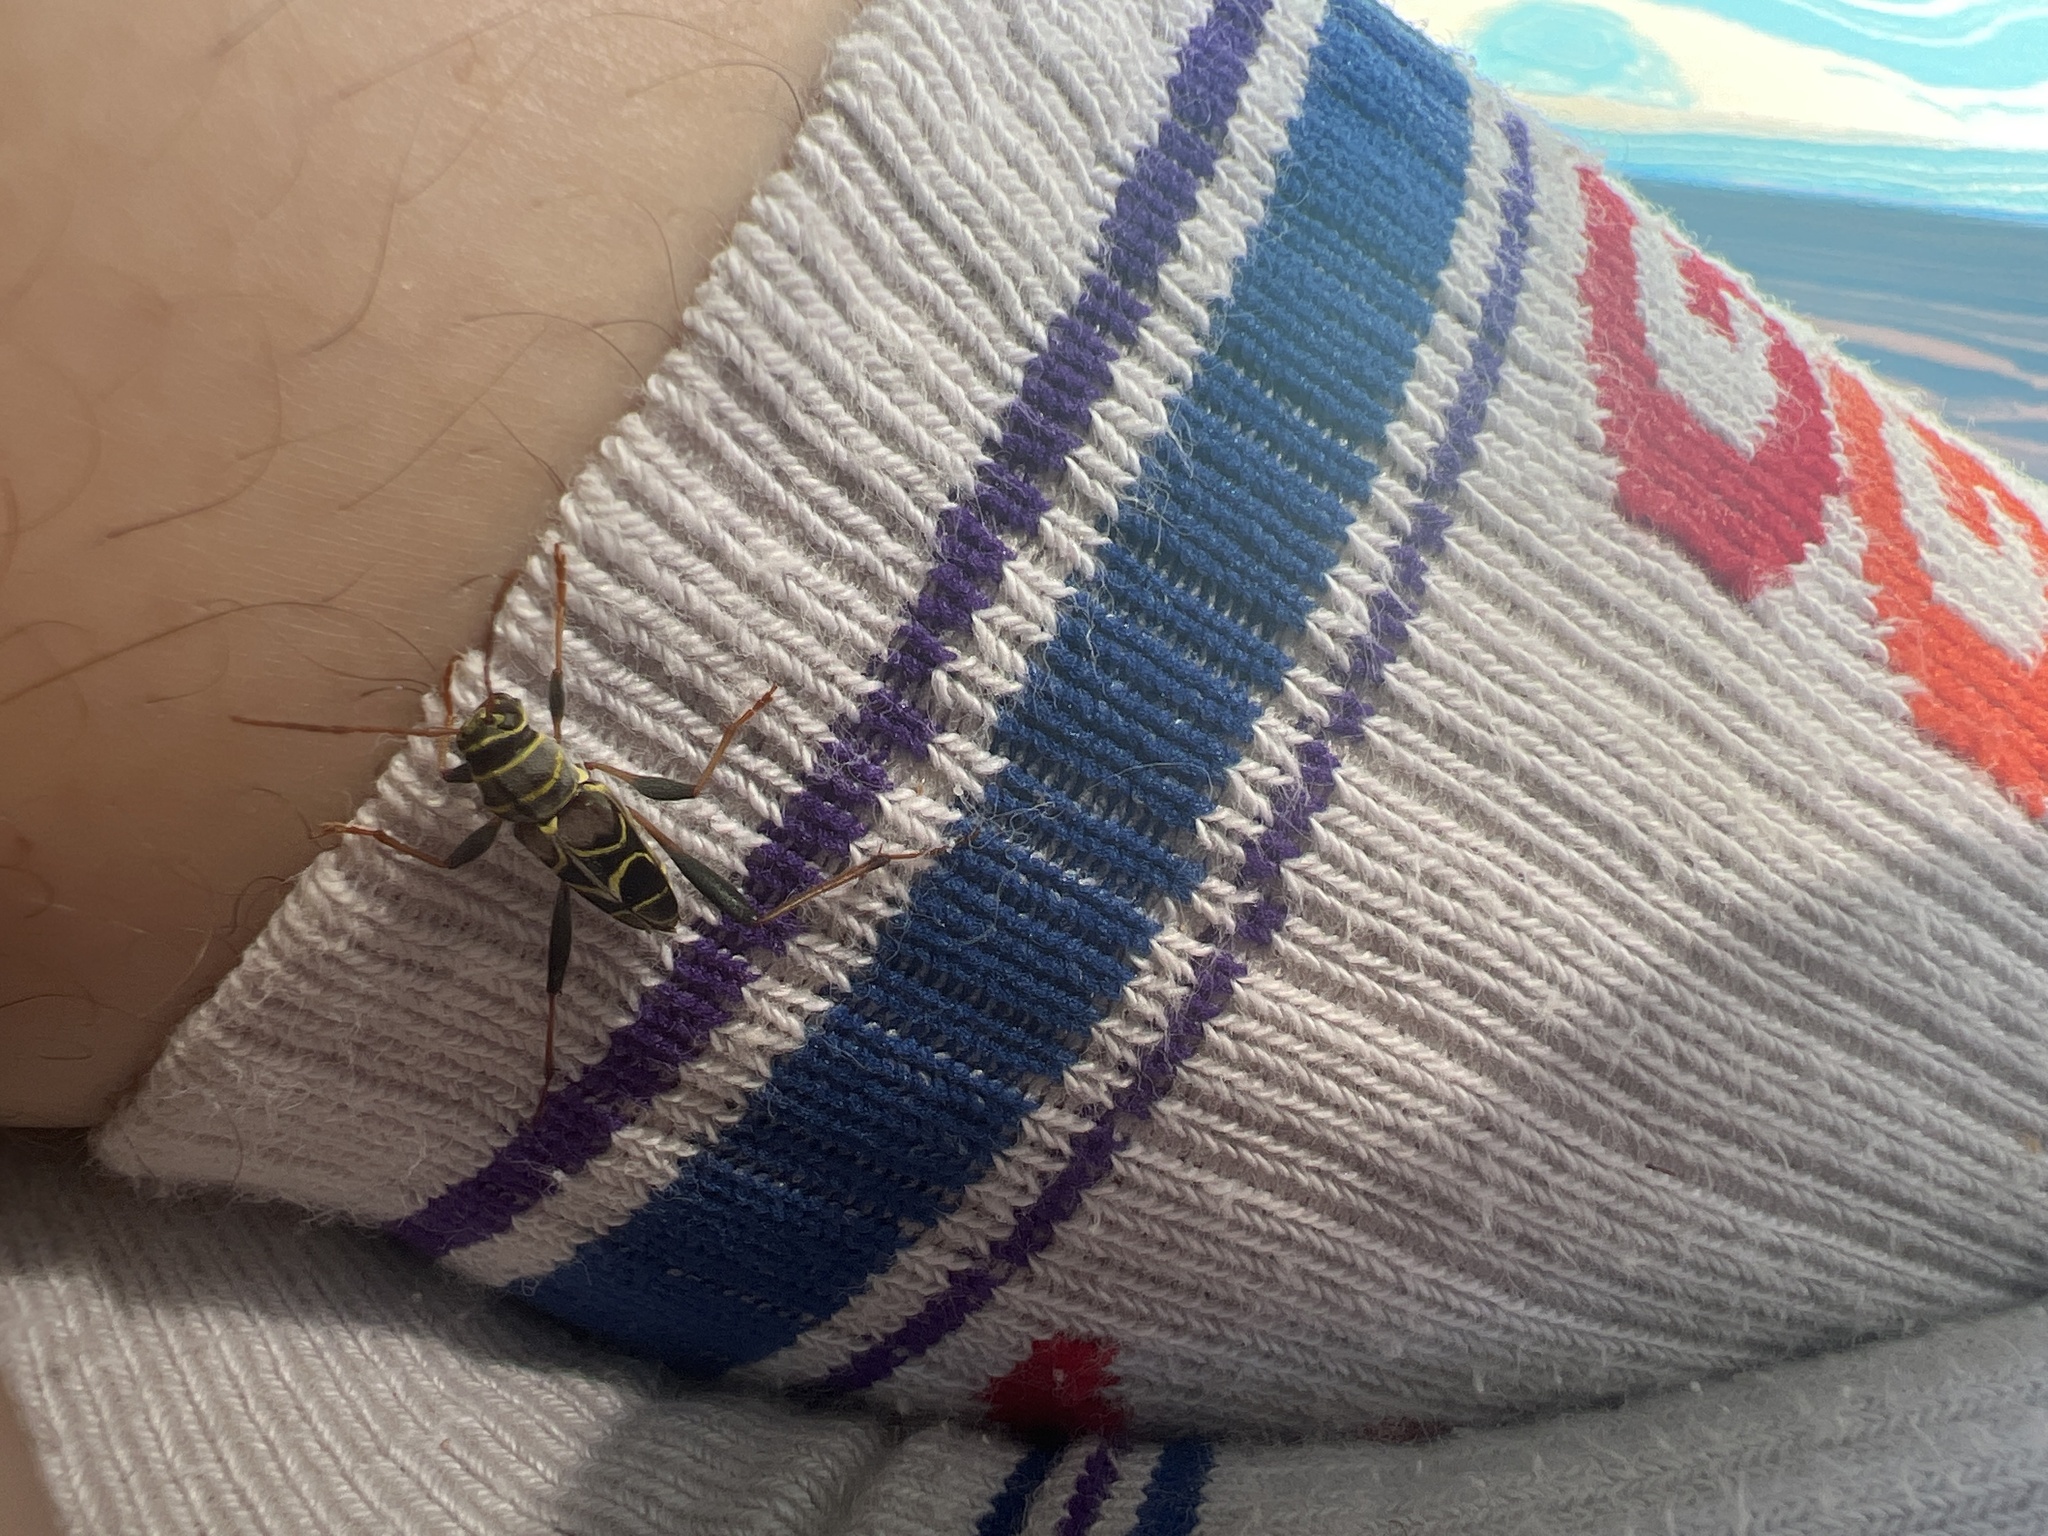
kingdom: Animalia
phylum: Arthropoda
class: Insecta
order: Coleoptera
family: Cerambycidae
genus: Neoclytus
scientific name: Neoclytus scutellaris
